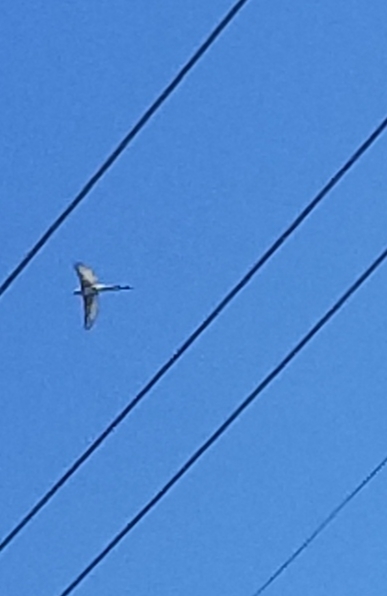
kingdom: Animalia
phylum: Chordata
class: Aves
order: Passeriformes
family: Tyrannidae
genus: Tyrannus
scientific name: Tyrannus forficatus
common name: Scissor-tailed flycatcher
